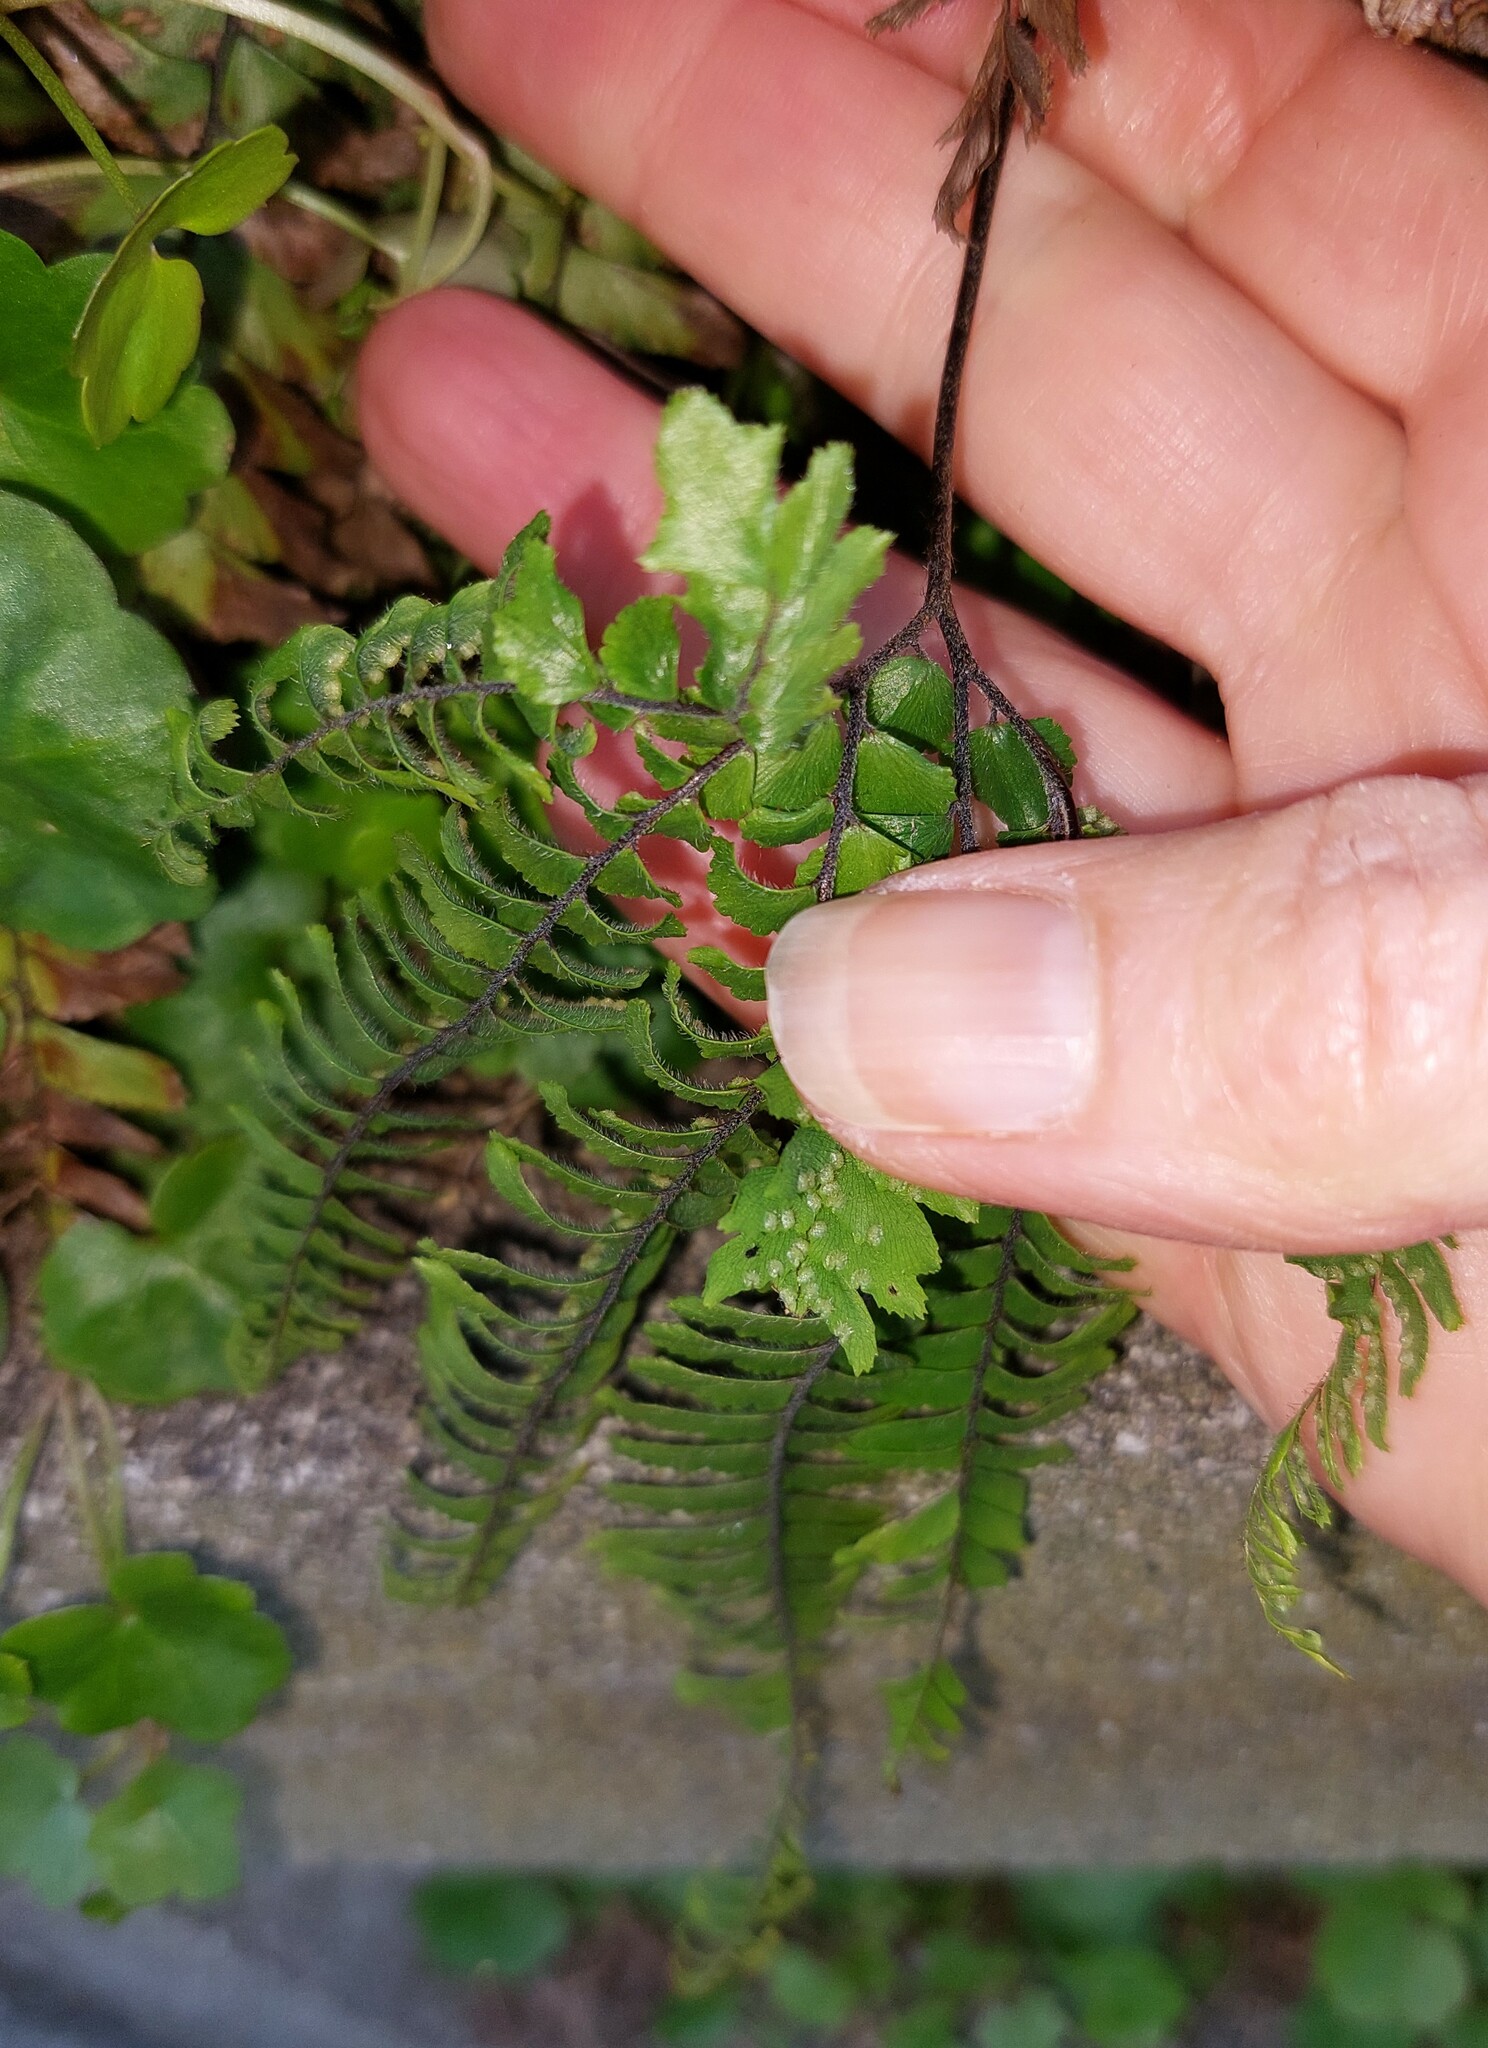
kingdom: Plantae
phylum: Tracheophyta
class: Polypodiopsida
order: Polypodiales
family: Pteridaceae
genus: Adiantum
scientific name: Adiantum hispidulum
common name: Rough maidenhair
